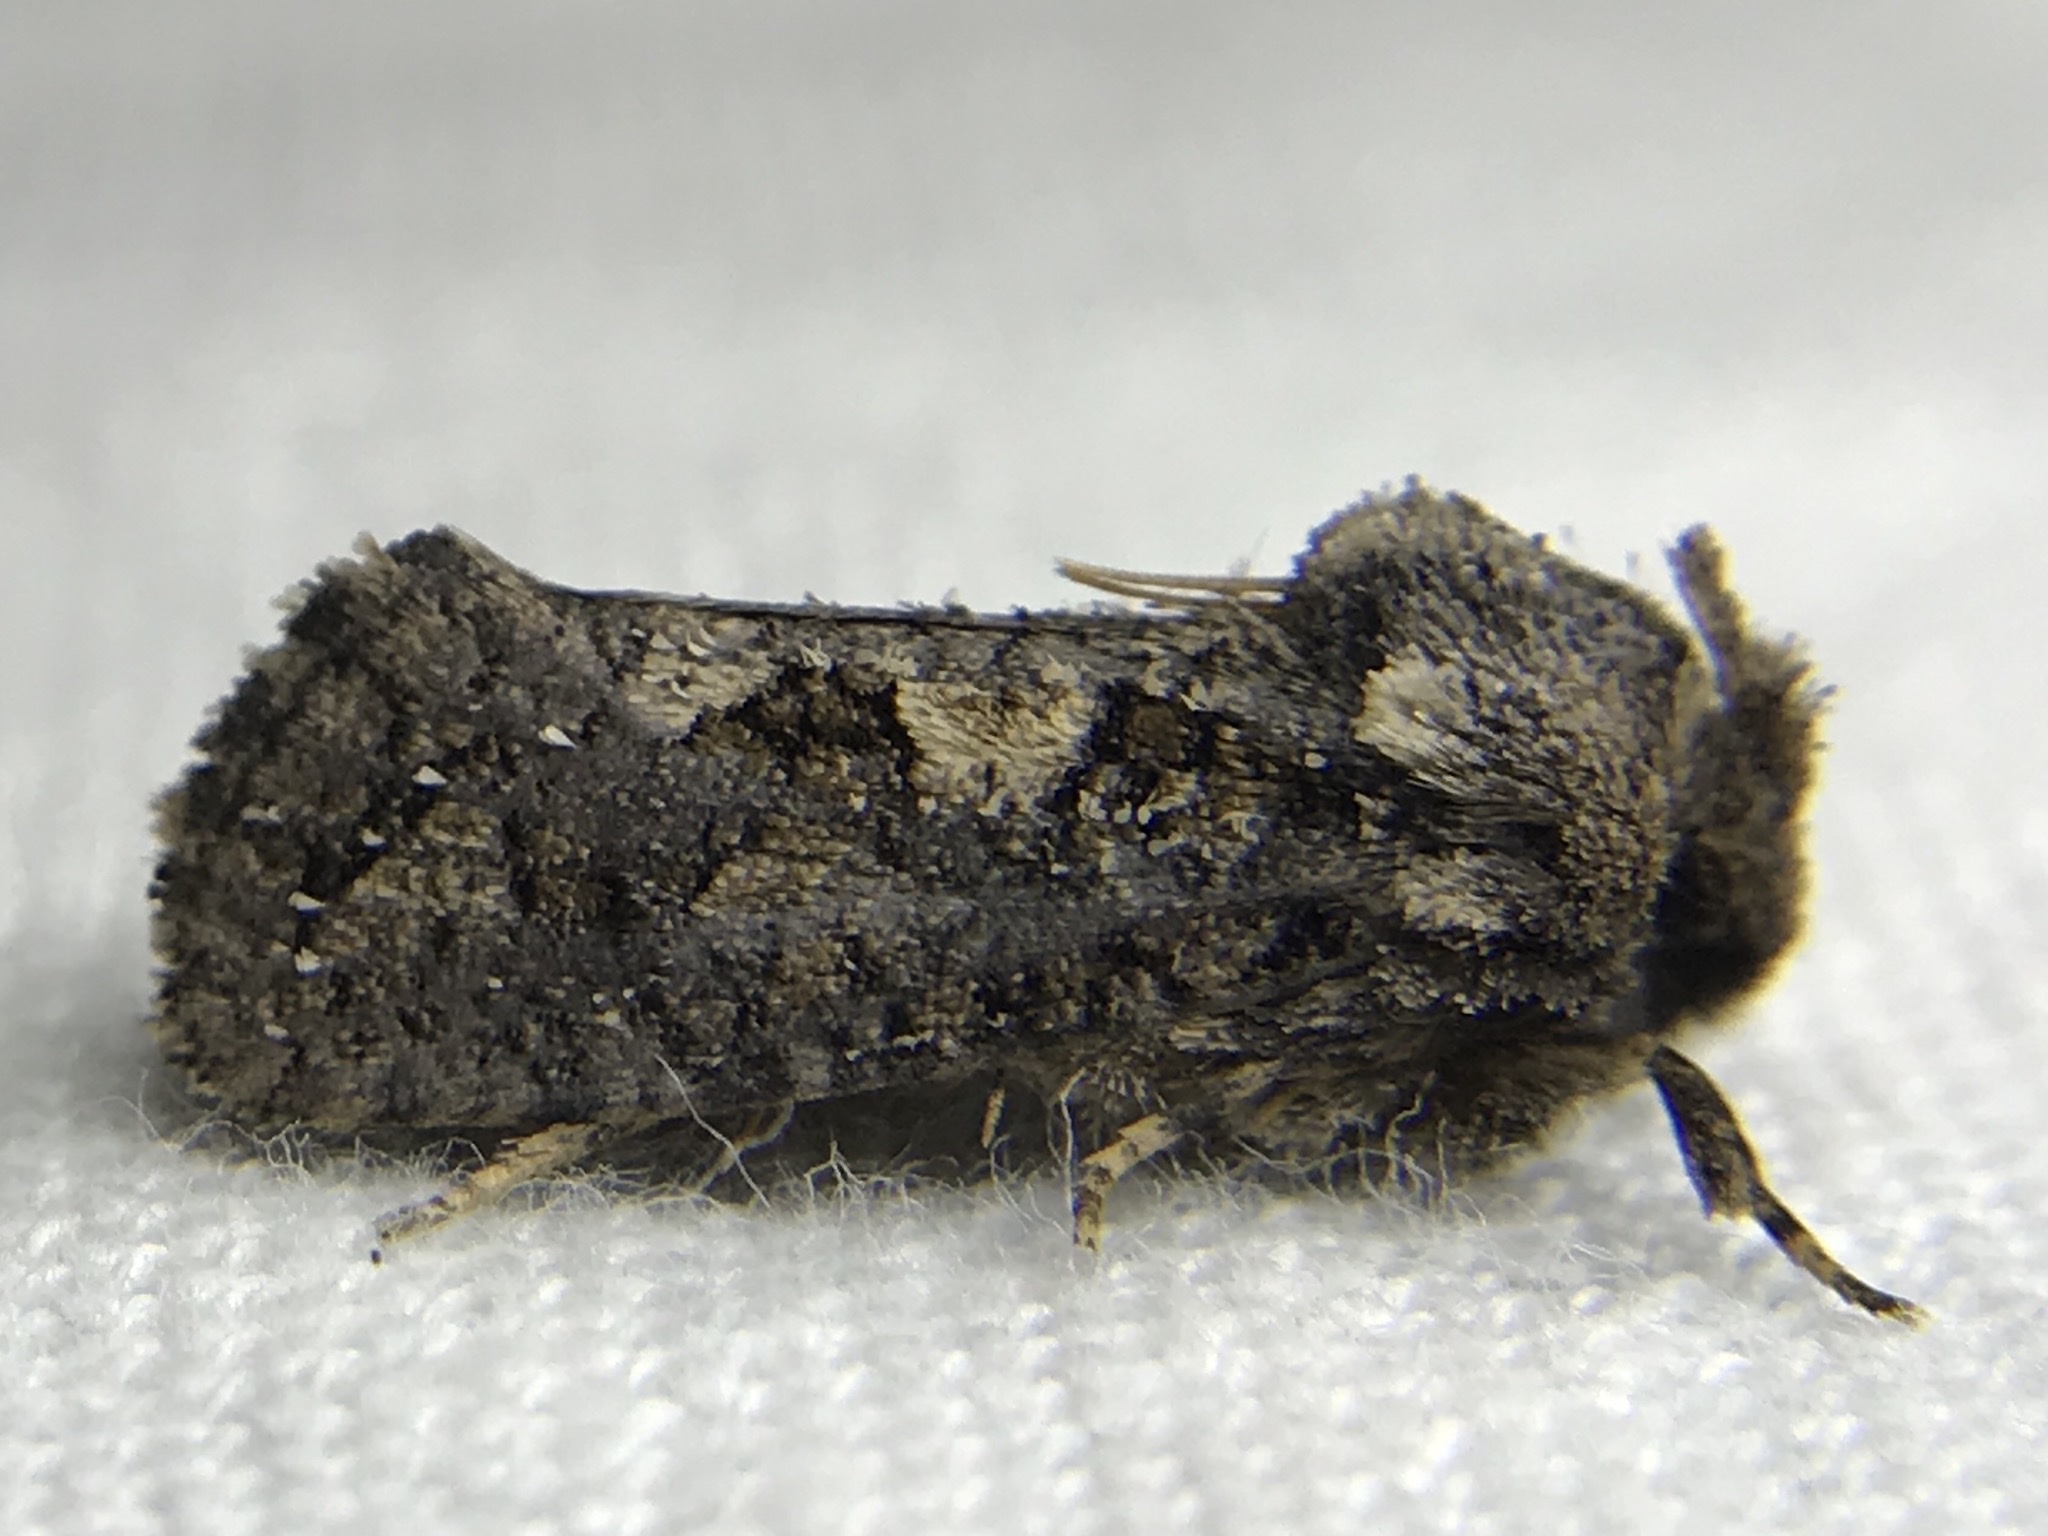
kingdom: Animalia
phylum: Arthropoda
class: Insecta
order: Lepidoptera
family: Tineidae
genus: Acrolophus
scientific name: Acrolophus arcanella
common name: Arcane grass tubeworm moth
